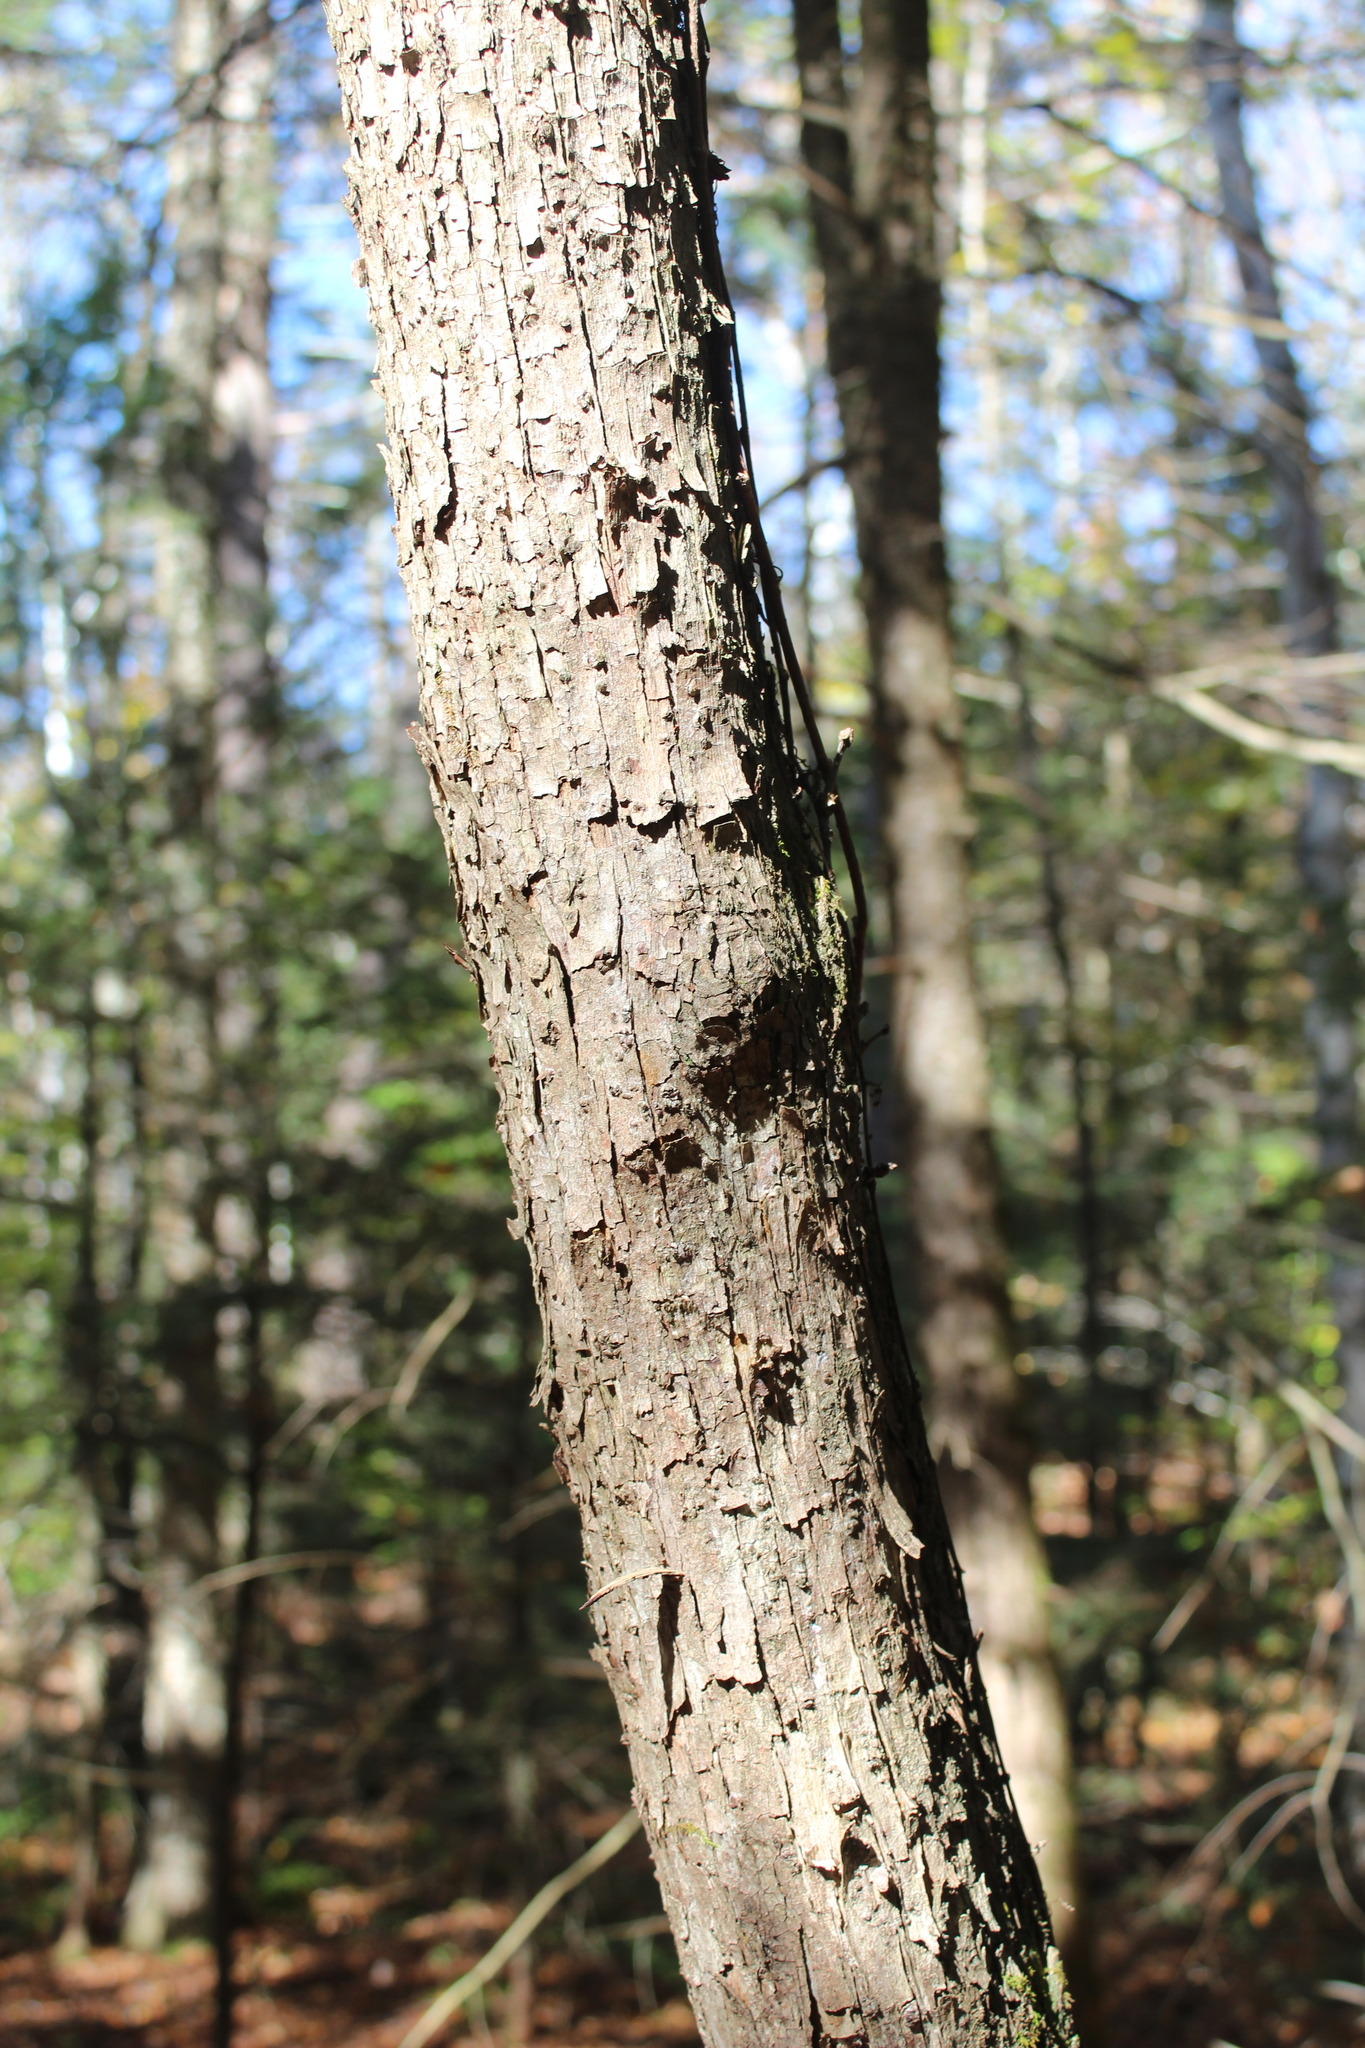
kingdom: Plantae
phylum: Tracheophyta
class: Magnoliopsida
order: Fagales
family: Betulaceae
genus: Ostrya
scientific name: Ostrya virginiana
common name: Ironwood
